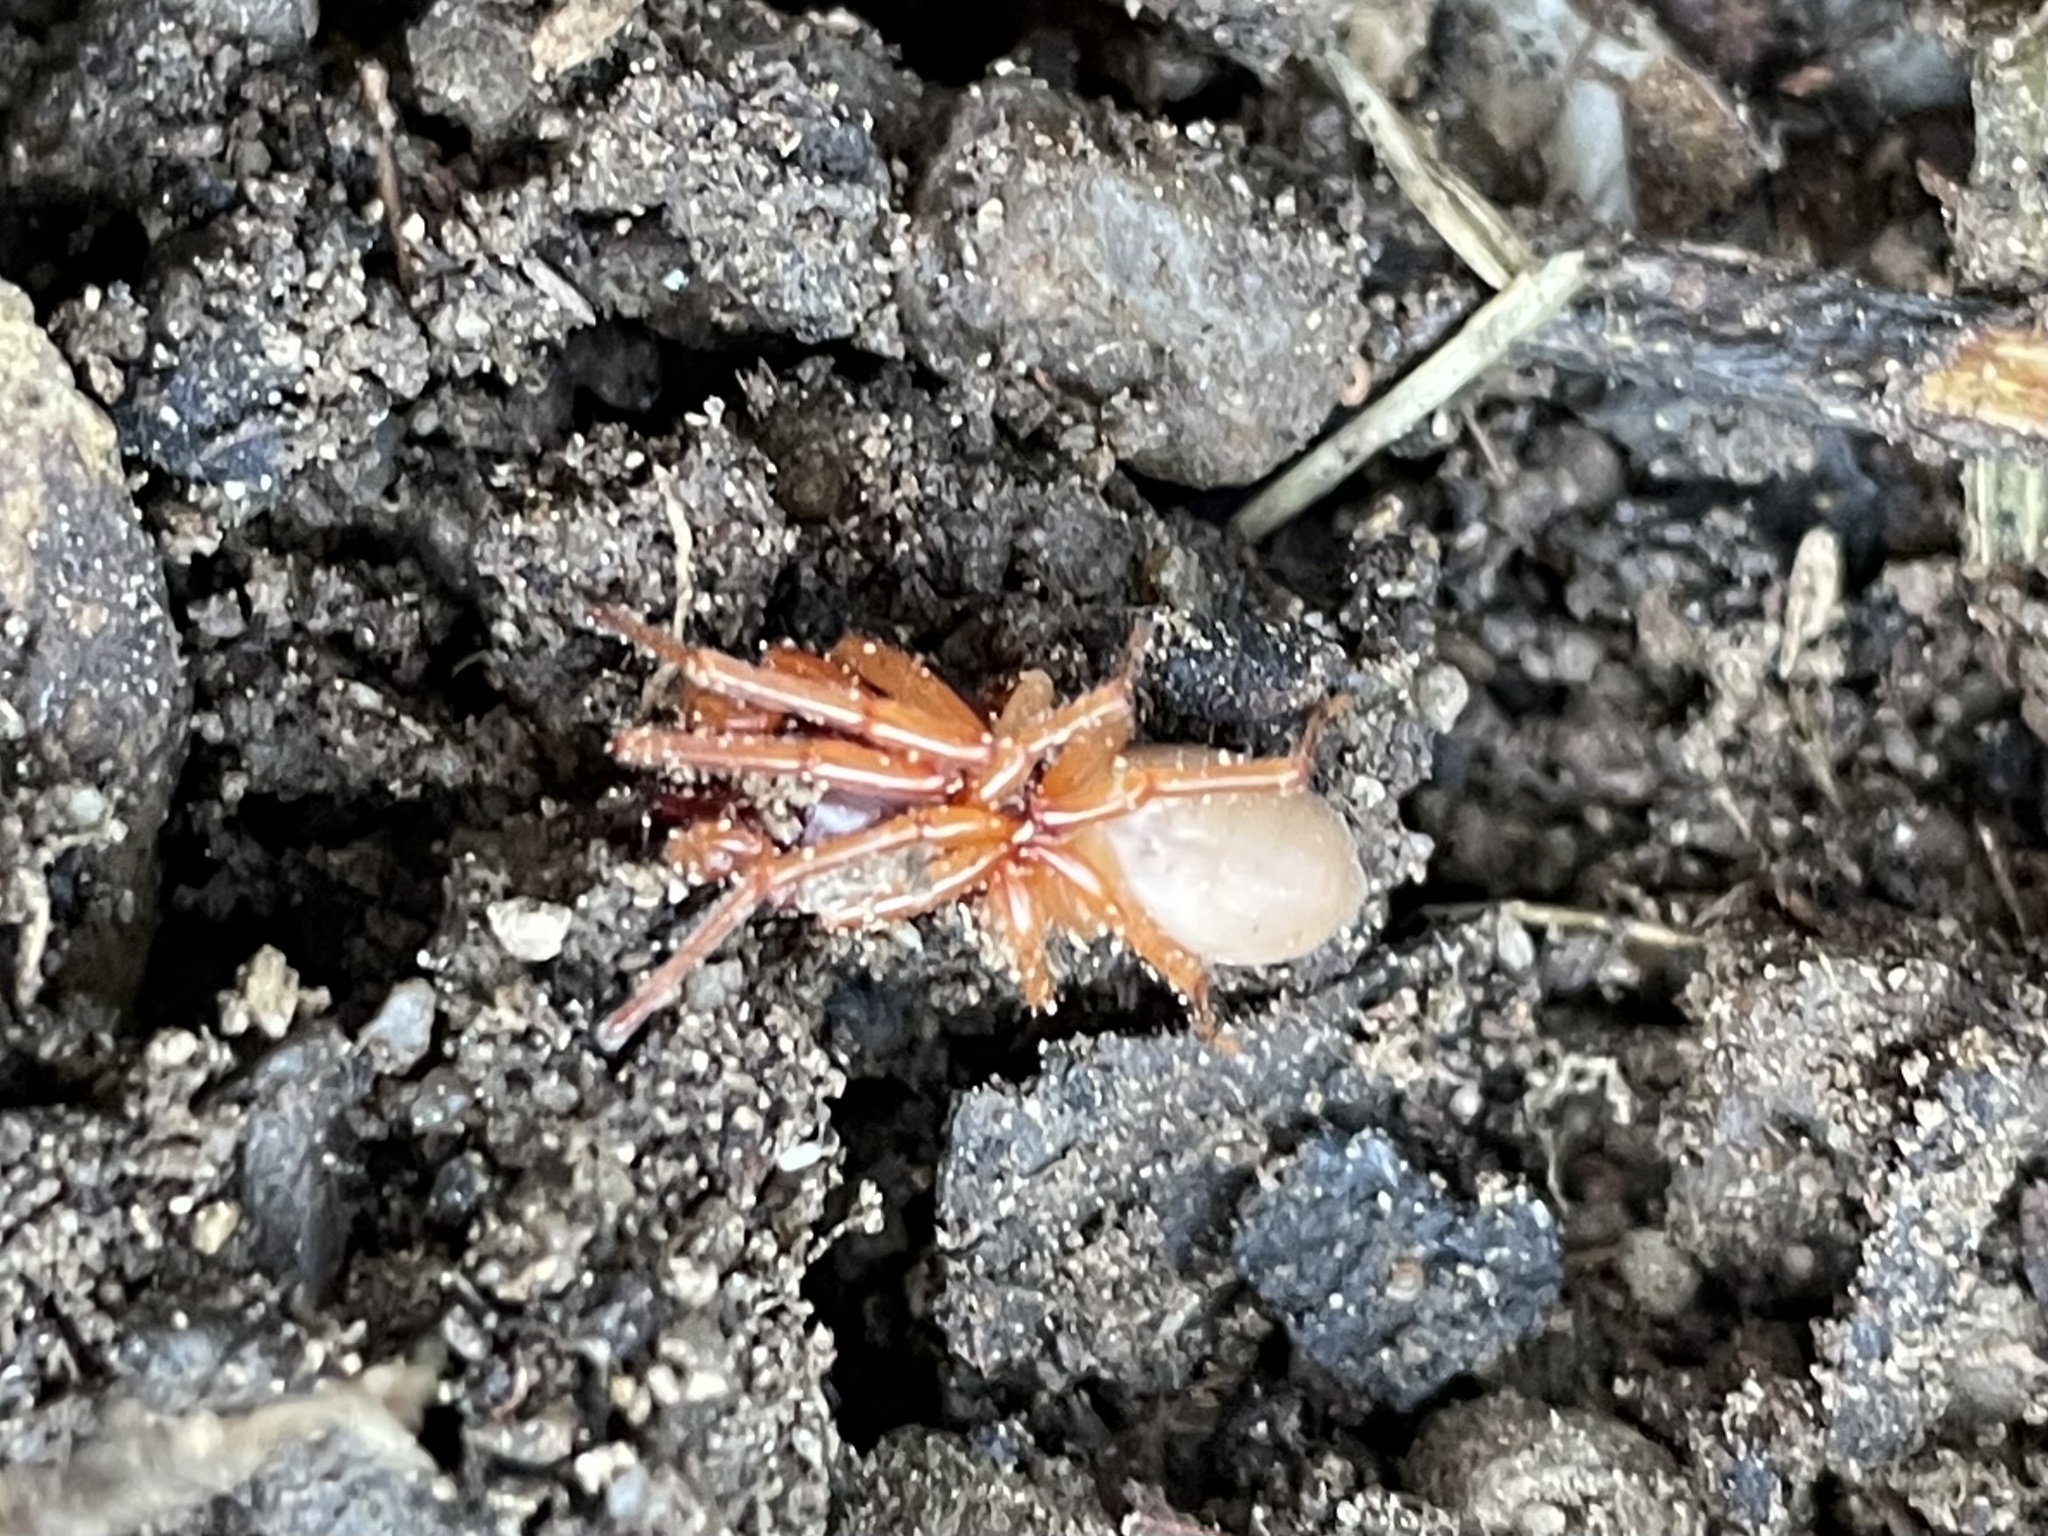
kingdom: Animalia
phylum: Arthropoda
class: Arachnida
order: Araneae
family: Dysderidae
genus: Dysdera
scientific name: Dysdera crocata
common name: Woodlouse spider
